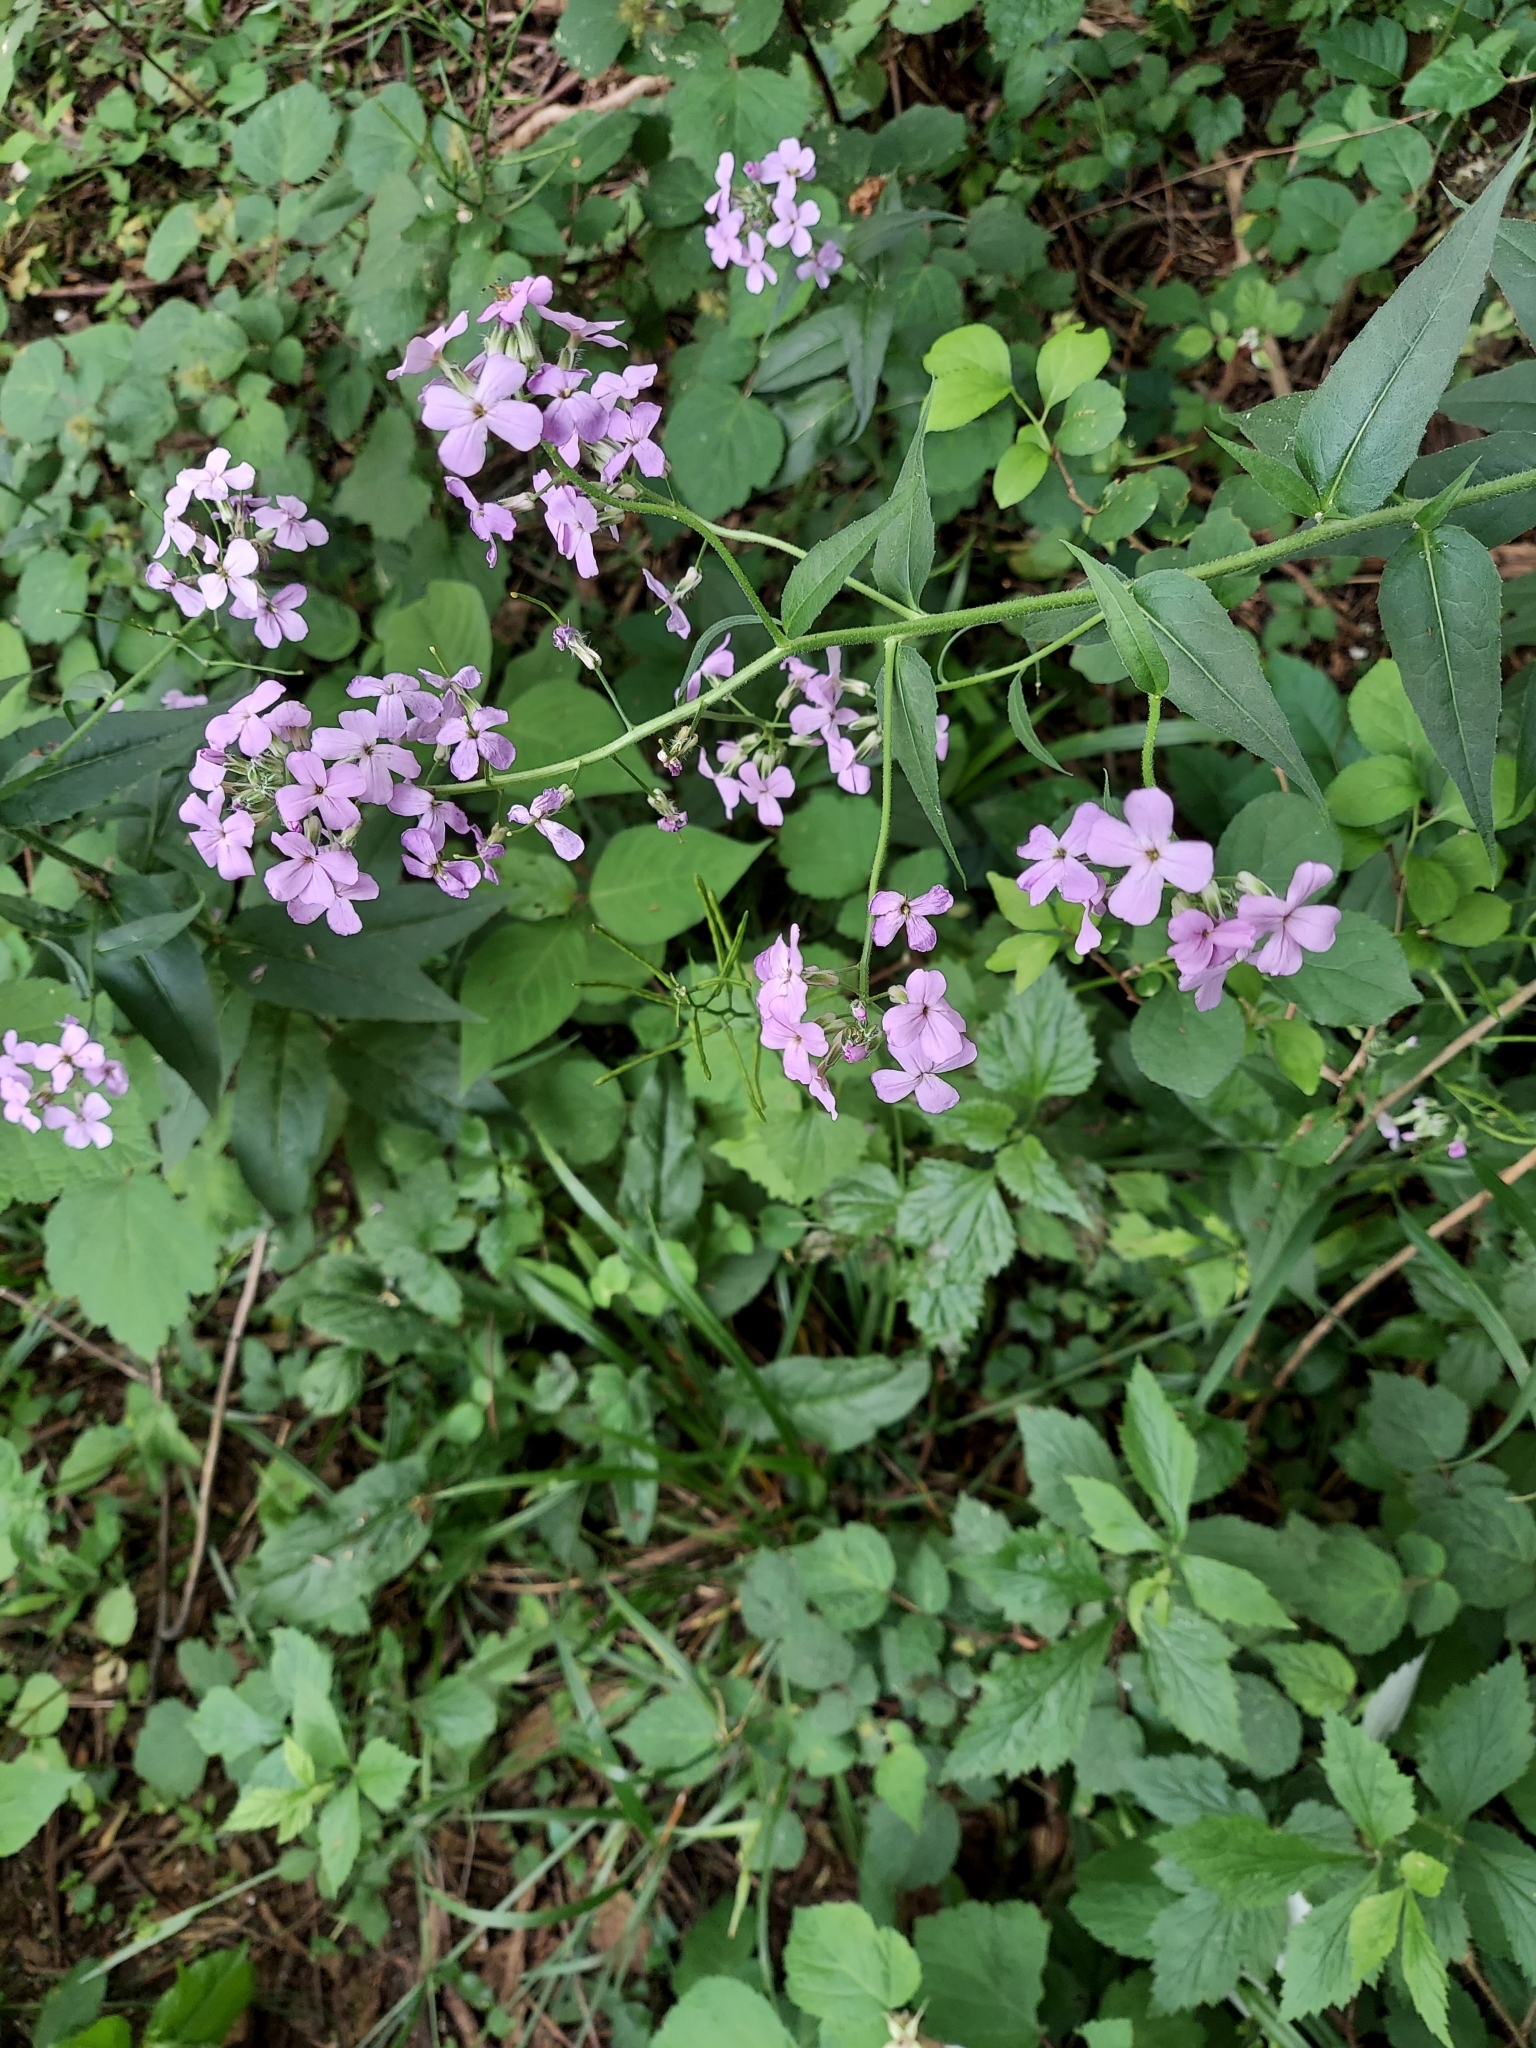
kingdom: Plantae
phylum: Tracheophyta
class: Magnoliopsida
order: Brassicales
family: Brassicaceae
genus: Hesperis
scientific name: Hesperis matronalis
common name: Dame's-violet
